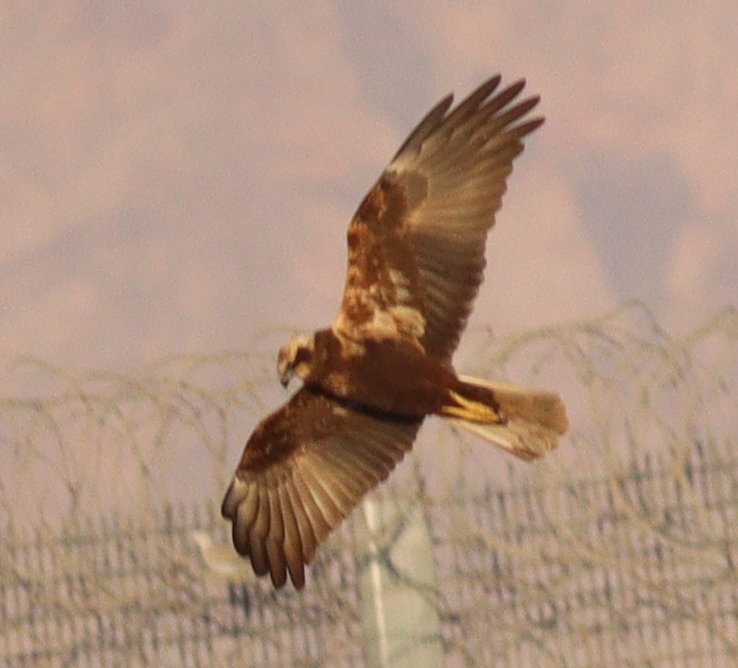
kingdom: Animalia
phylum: Chordata
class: Aves
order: Accipitriformes
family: Accipitridae
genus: Circus
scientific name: Circus aeruginosus
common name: Western marsh harrier
